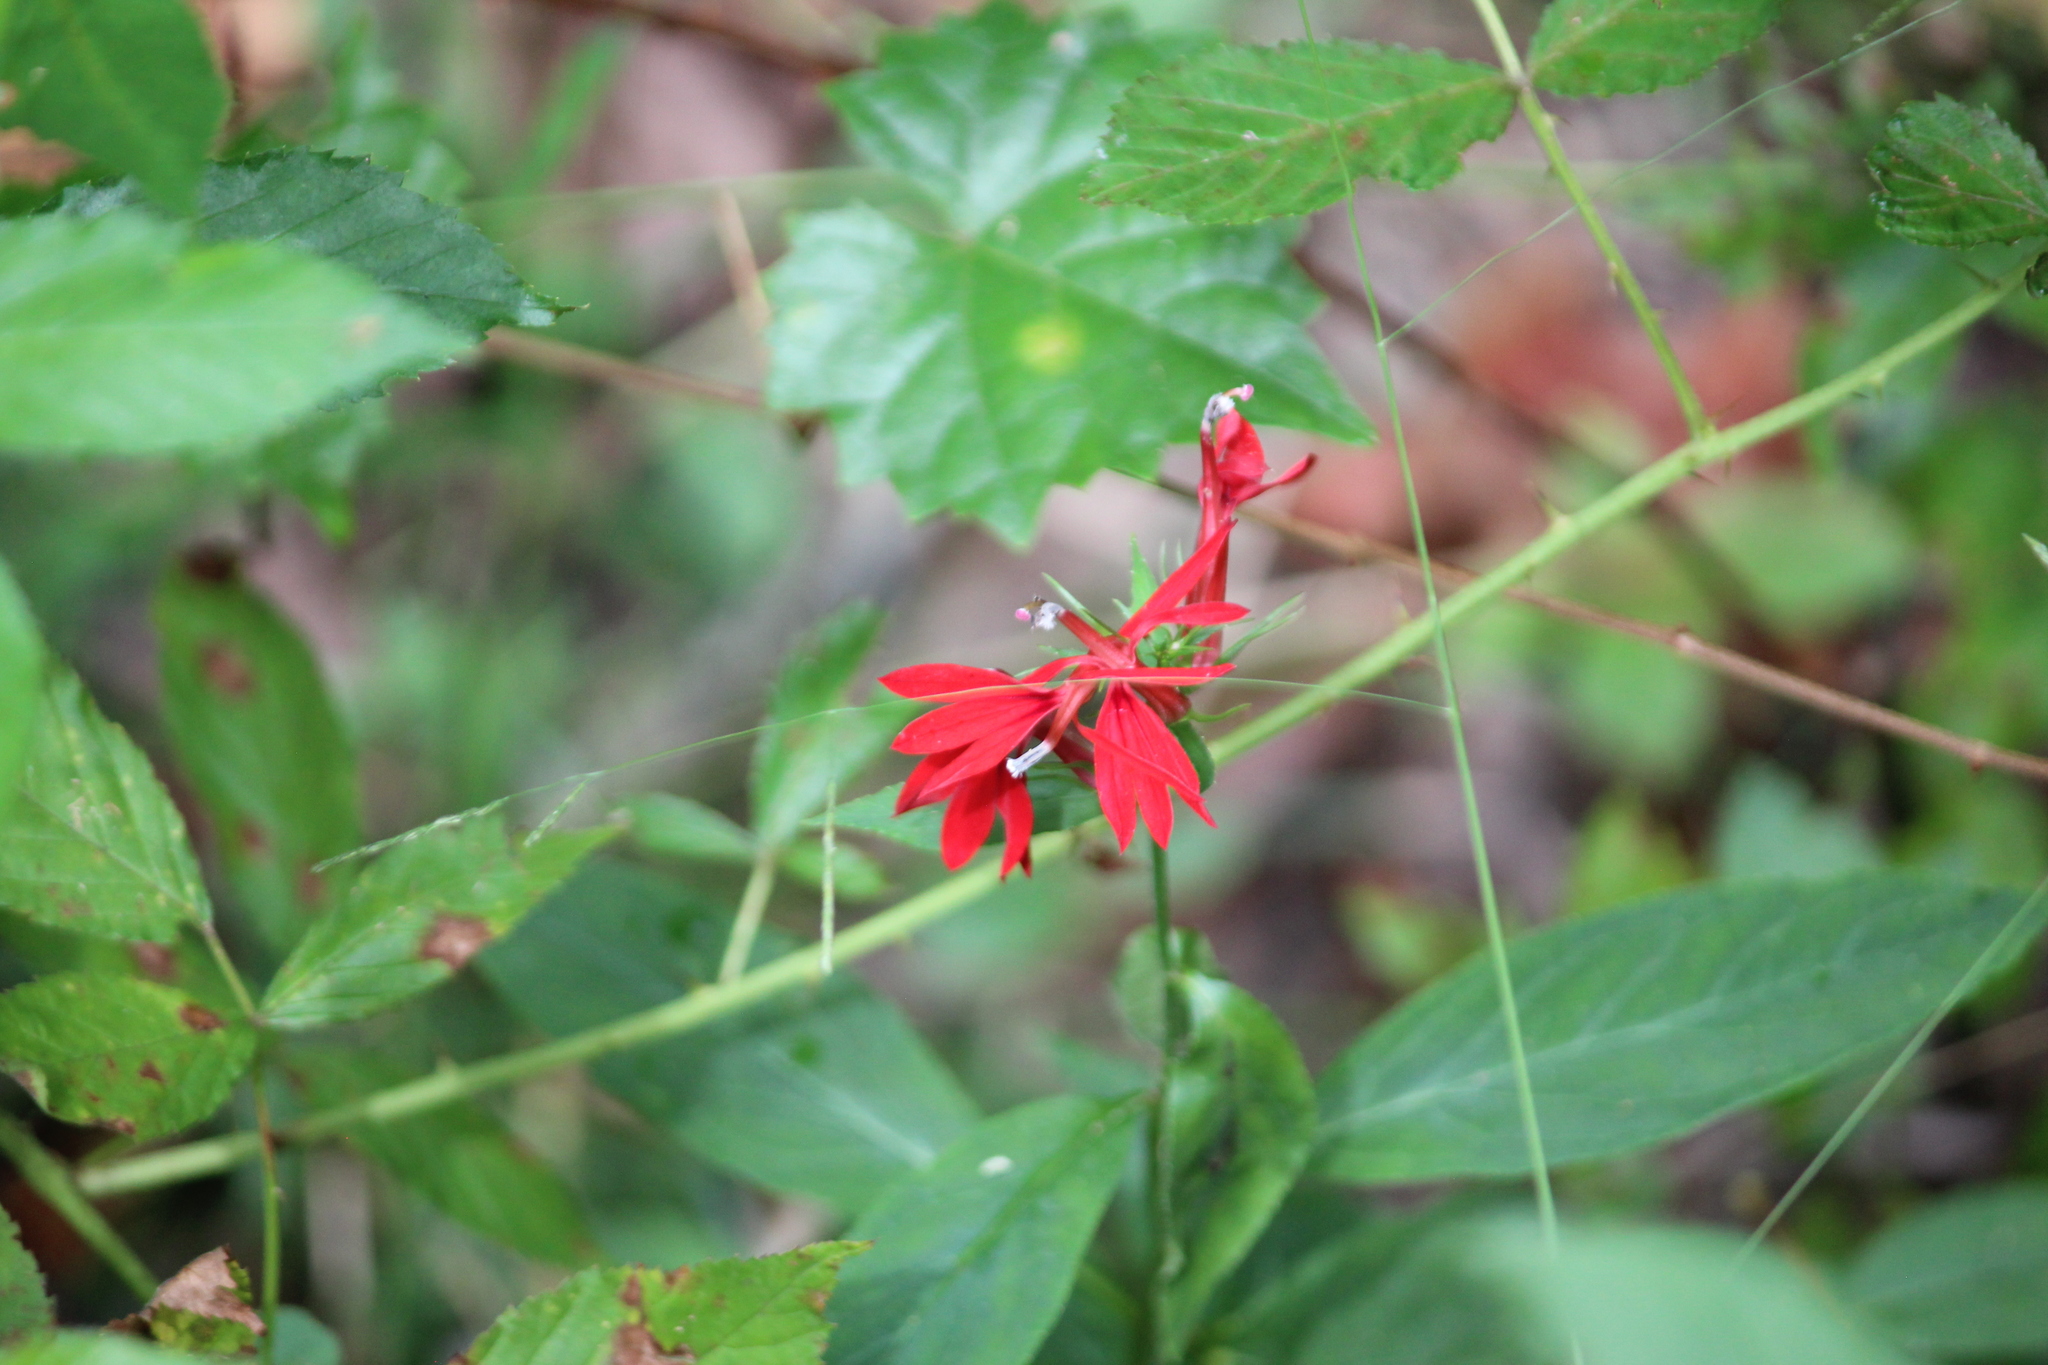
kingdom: Plantae
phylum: Tracheophyta
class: Magnoliopsida
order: Asterales
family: Campanulaceae
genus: Lobelia
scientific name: Lobelia cardinalis
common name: Cardinal flower
